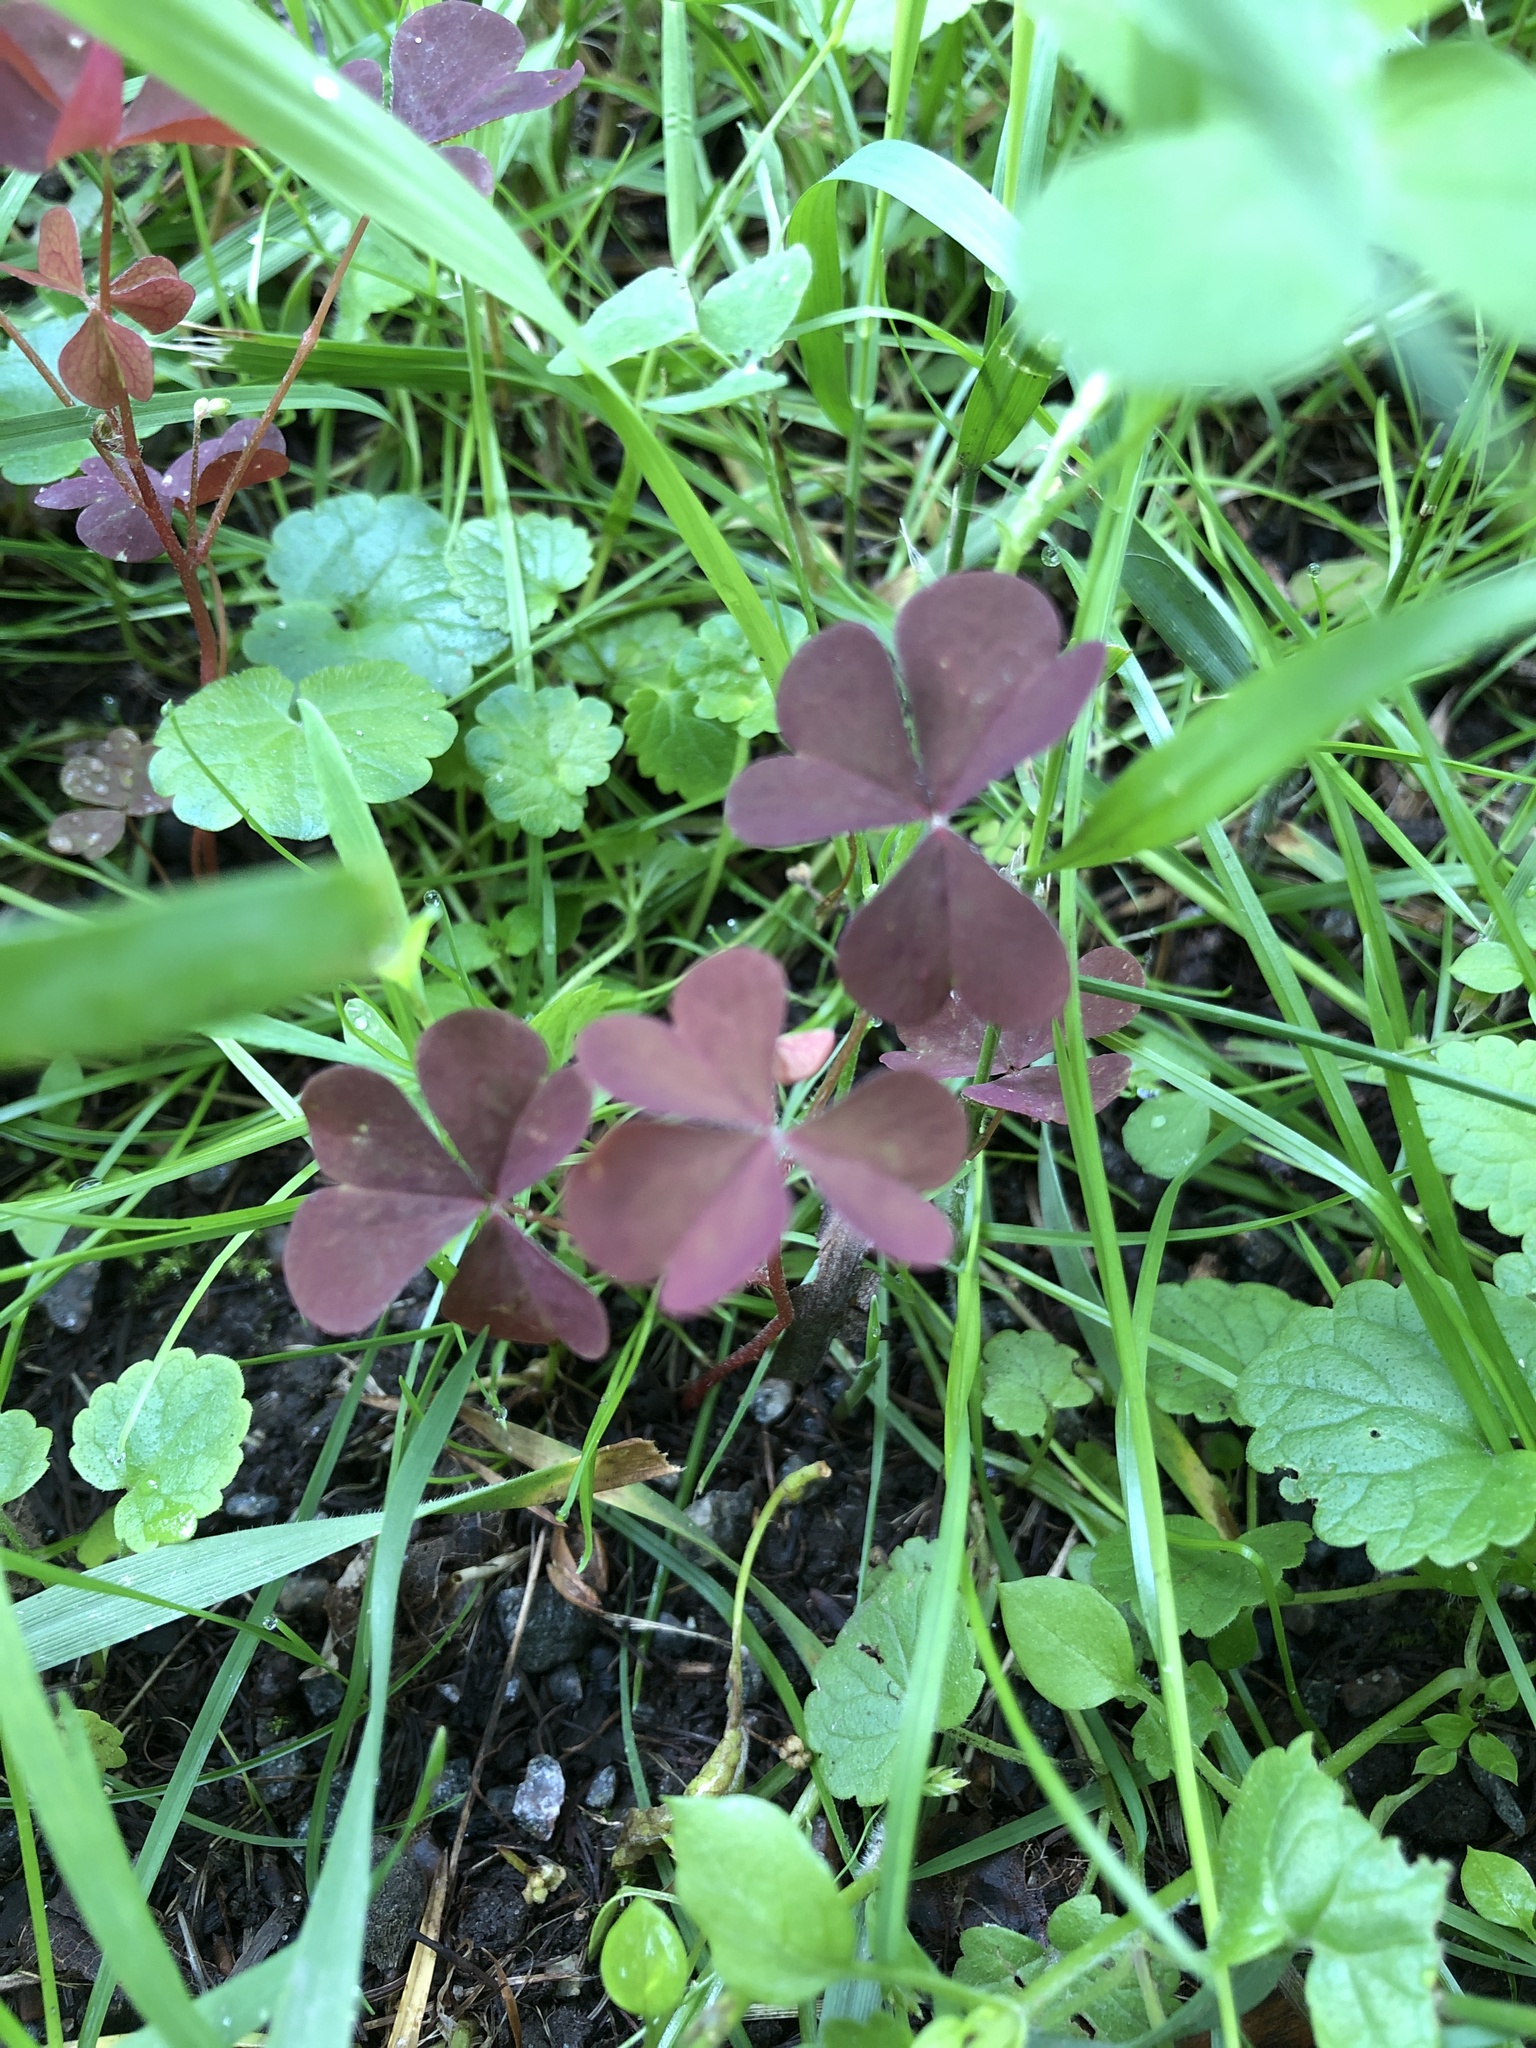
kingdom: Plantae
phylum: Tracheophyta
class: Magnoliopsida
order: Oxalidales
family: Oxalidaceae
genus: Oxalis
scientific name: Oxalis stricta
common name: Upright yellow-sorrel
